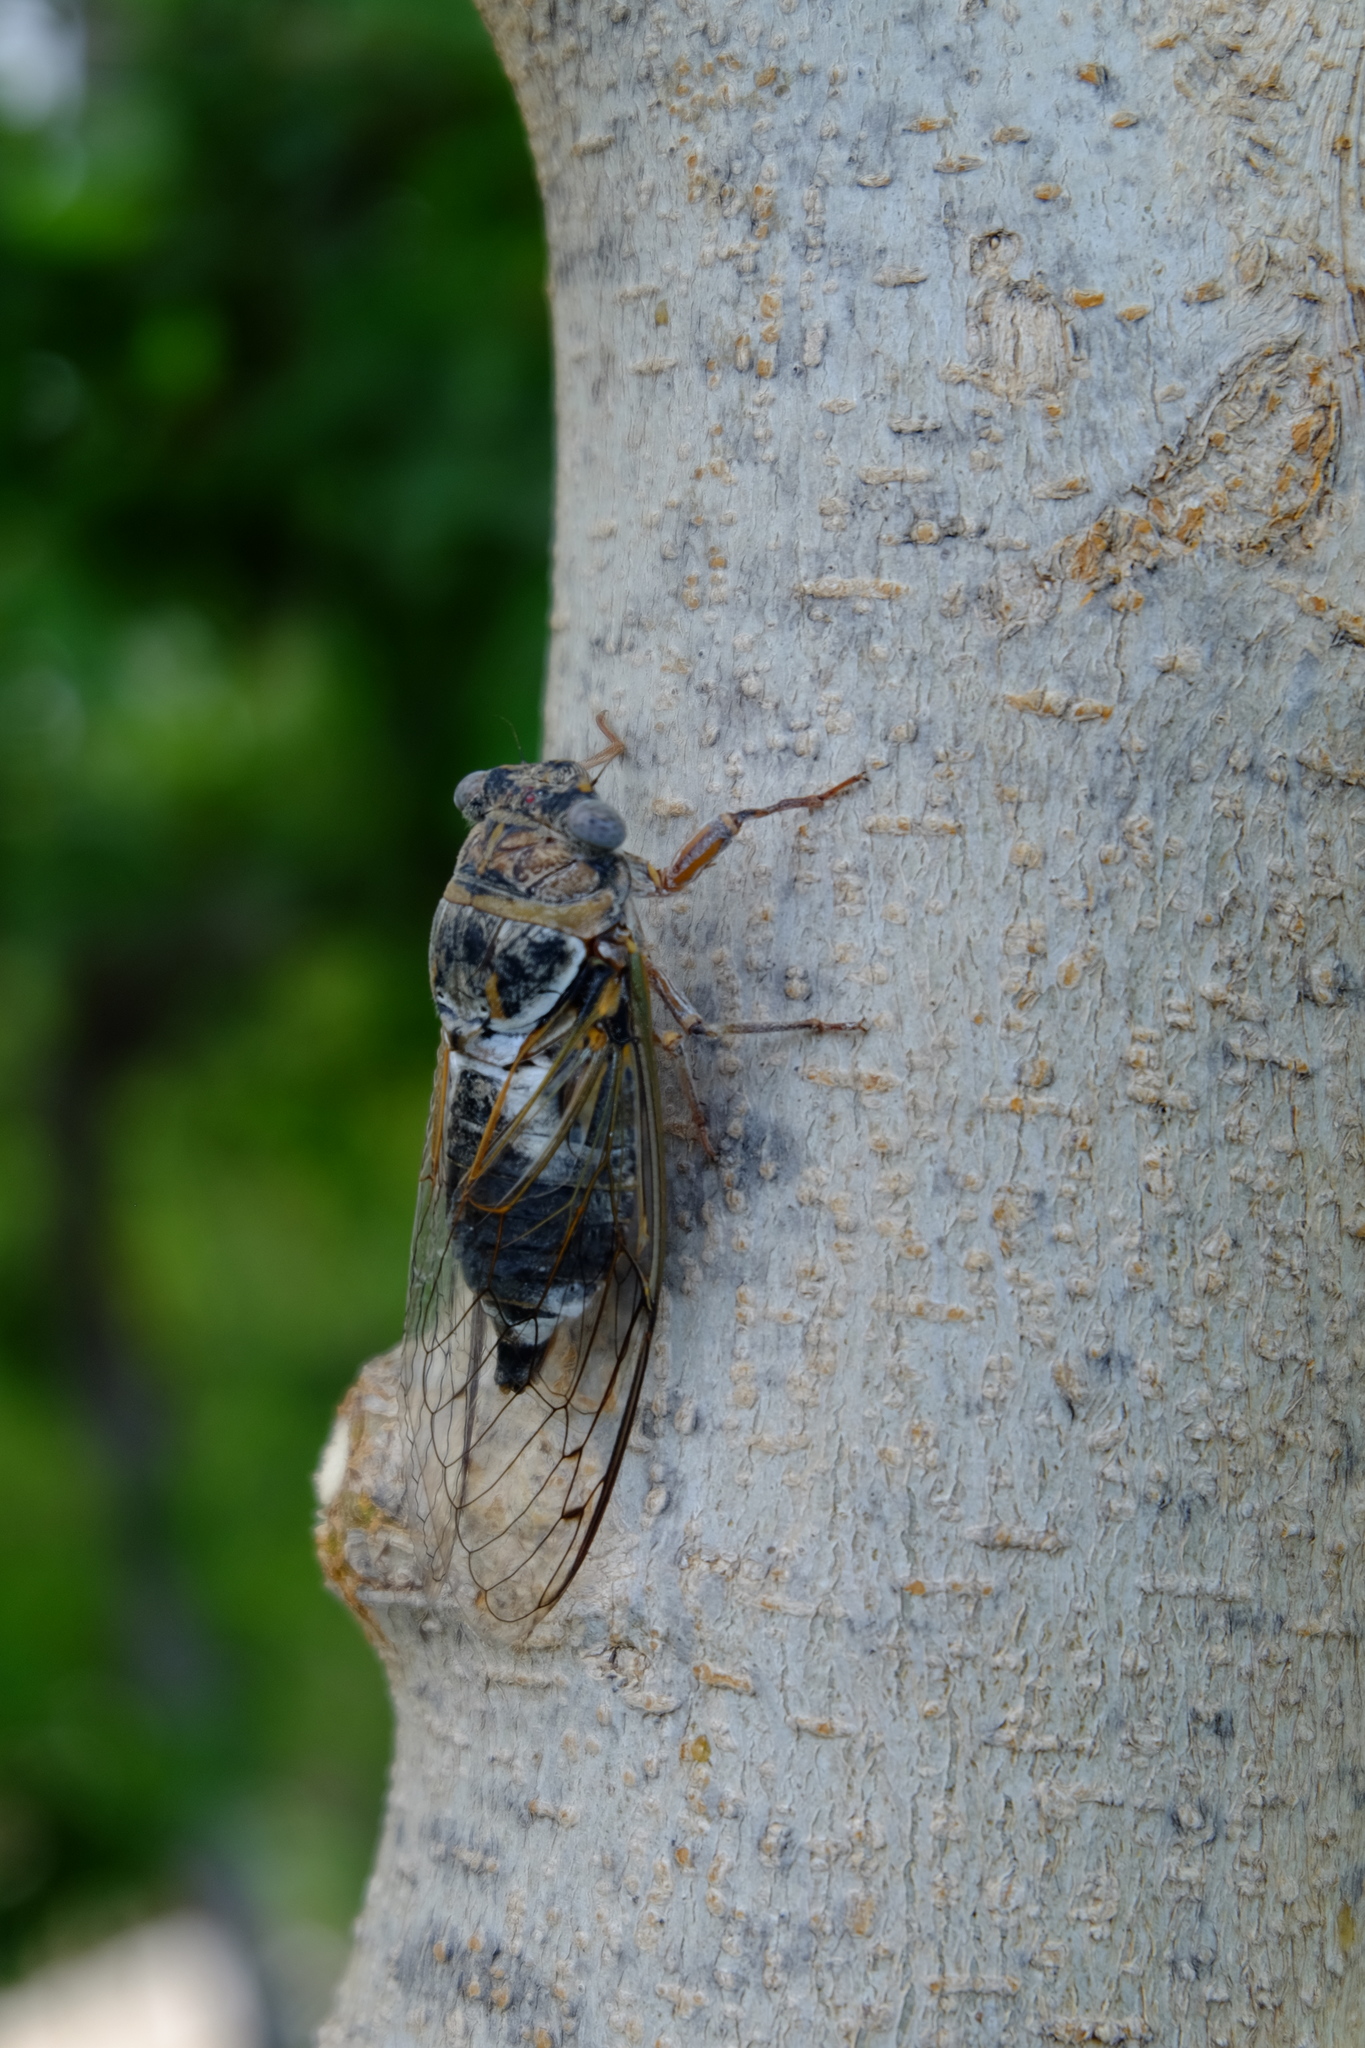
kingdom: Animalia
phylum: Arthropoda
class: Insecta
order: Hemiptera
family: Cicadidae
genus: Lyristes
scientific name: Lyristes gemellus
